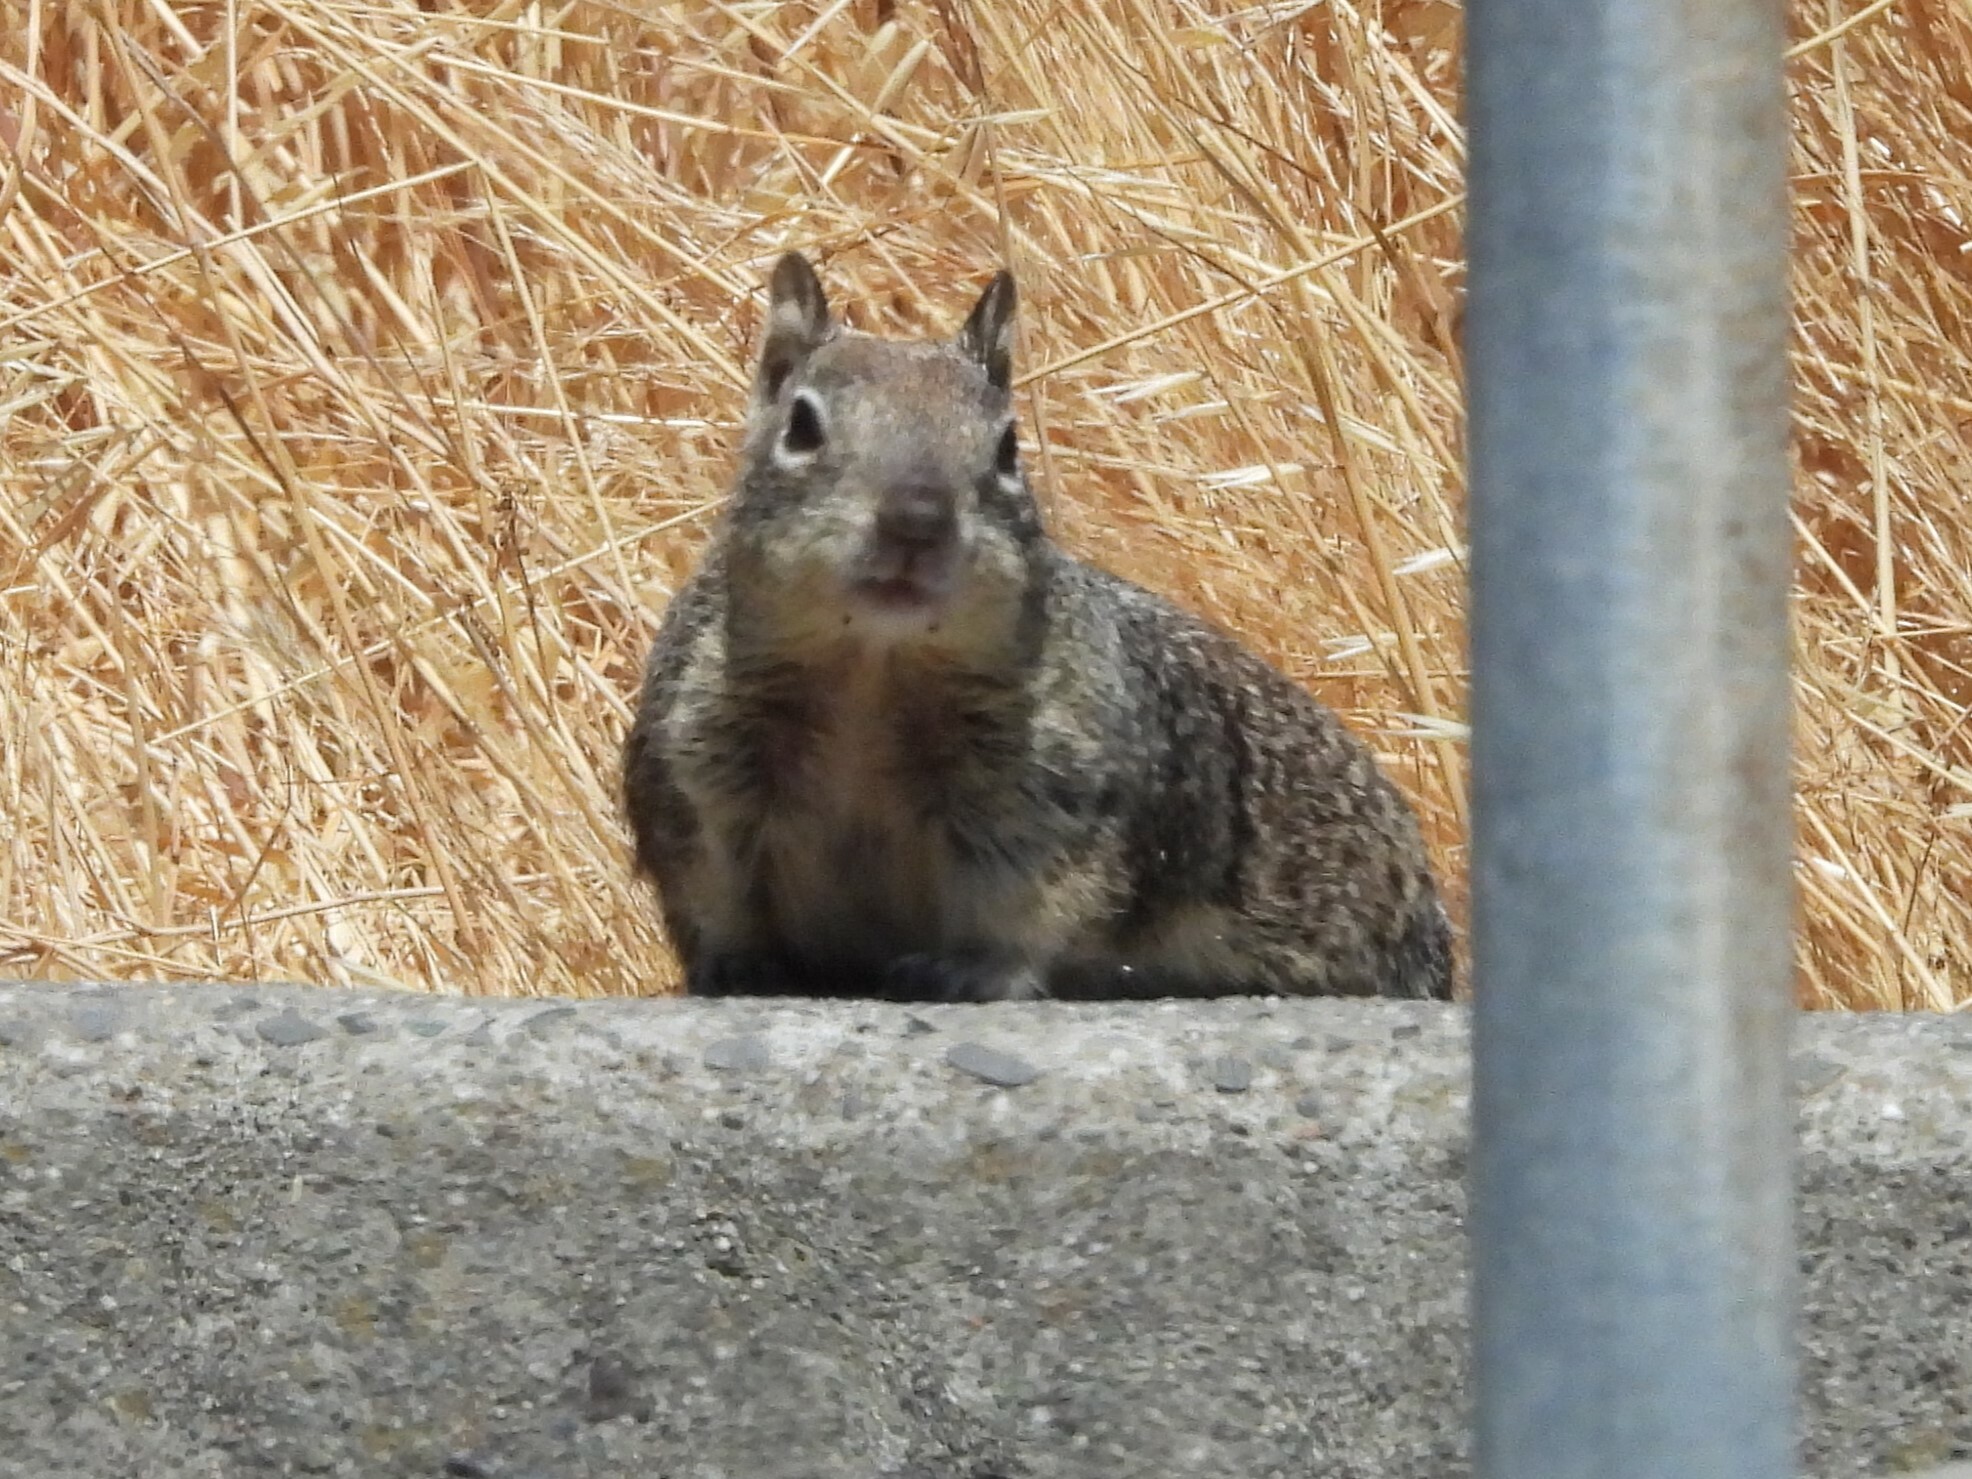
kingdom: Animalia
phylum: Chordata
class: Mammalia
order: Rodentia
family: Sciuridae
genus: Otospermophilus
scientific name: Otospermophilus beecheyi
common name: California ground squirrel
